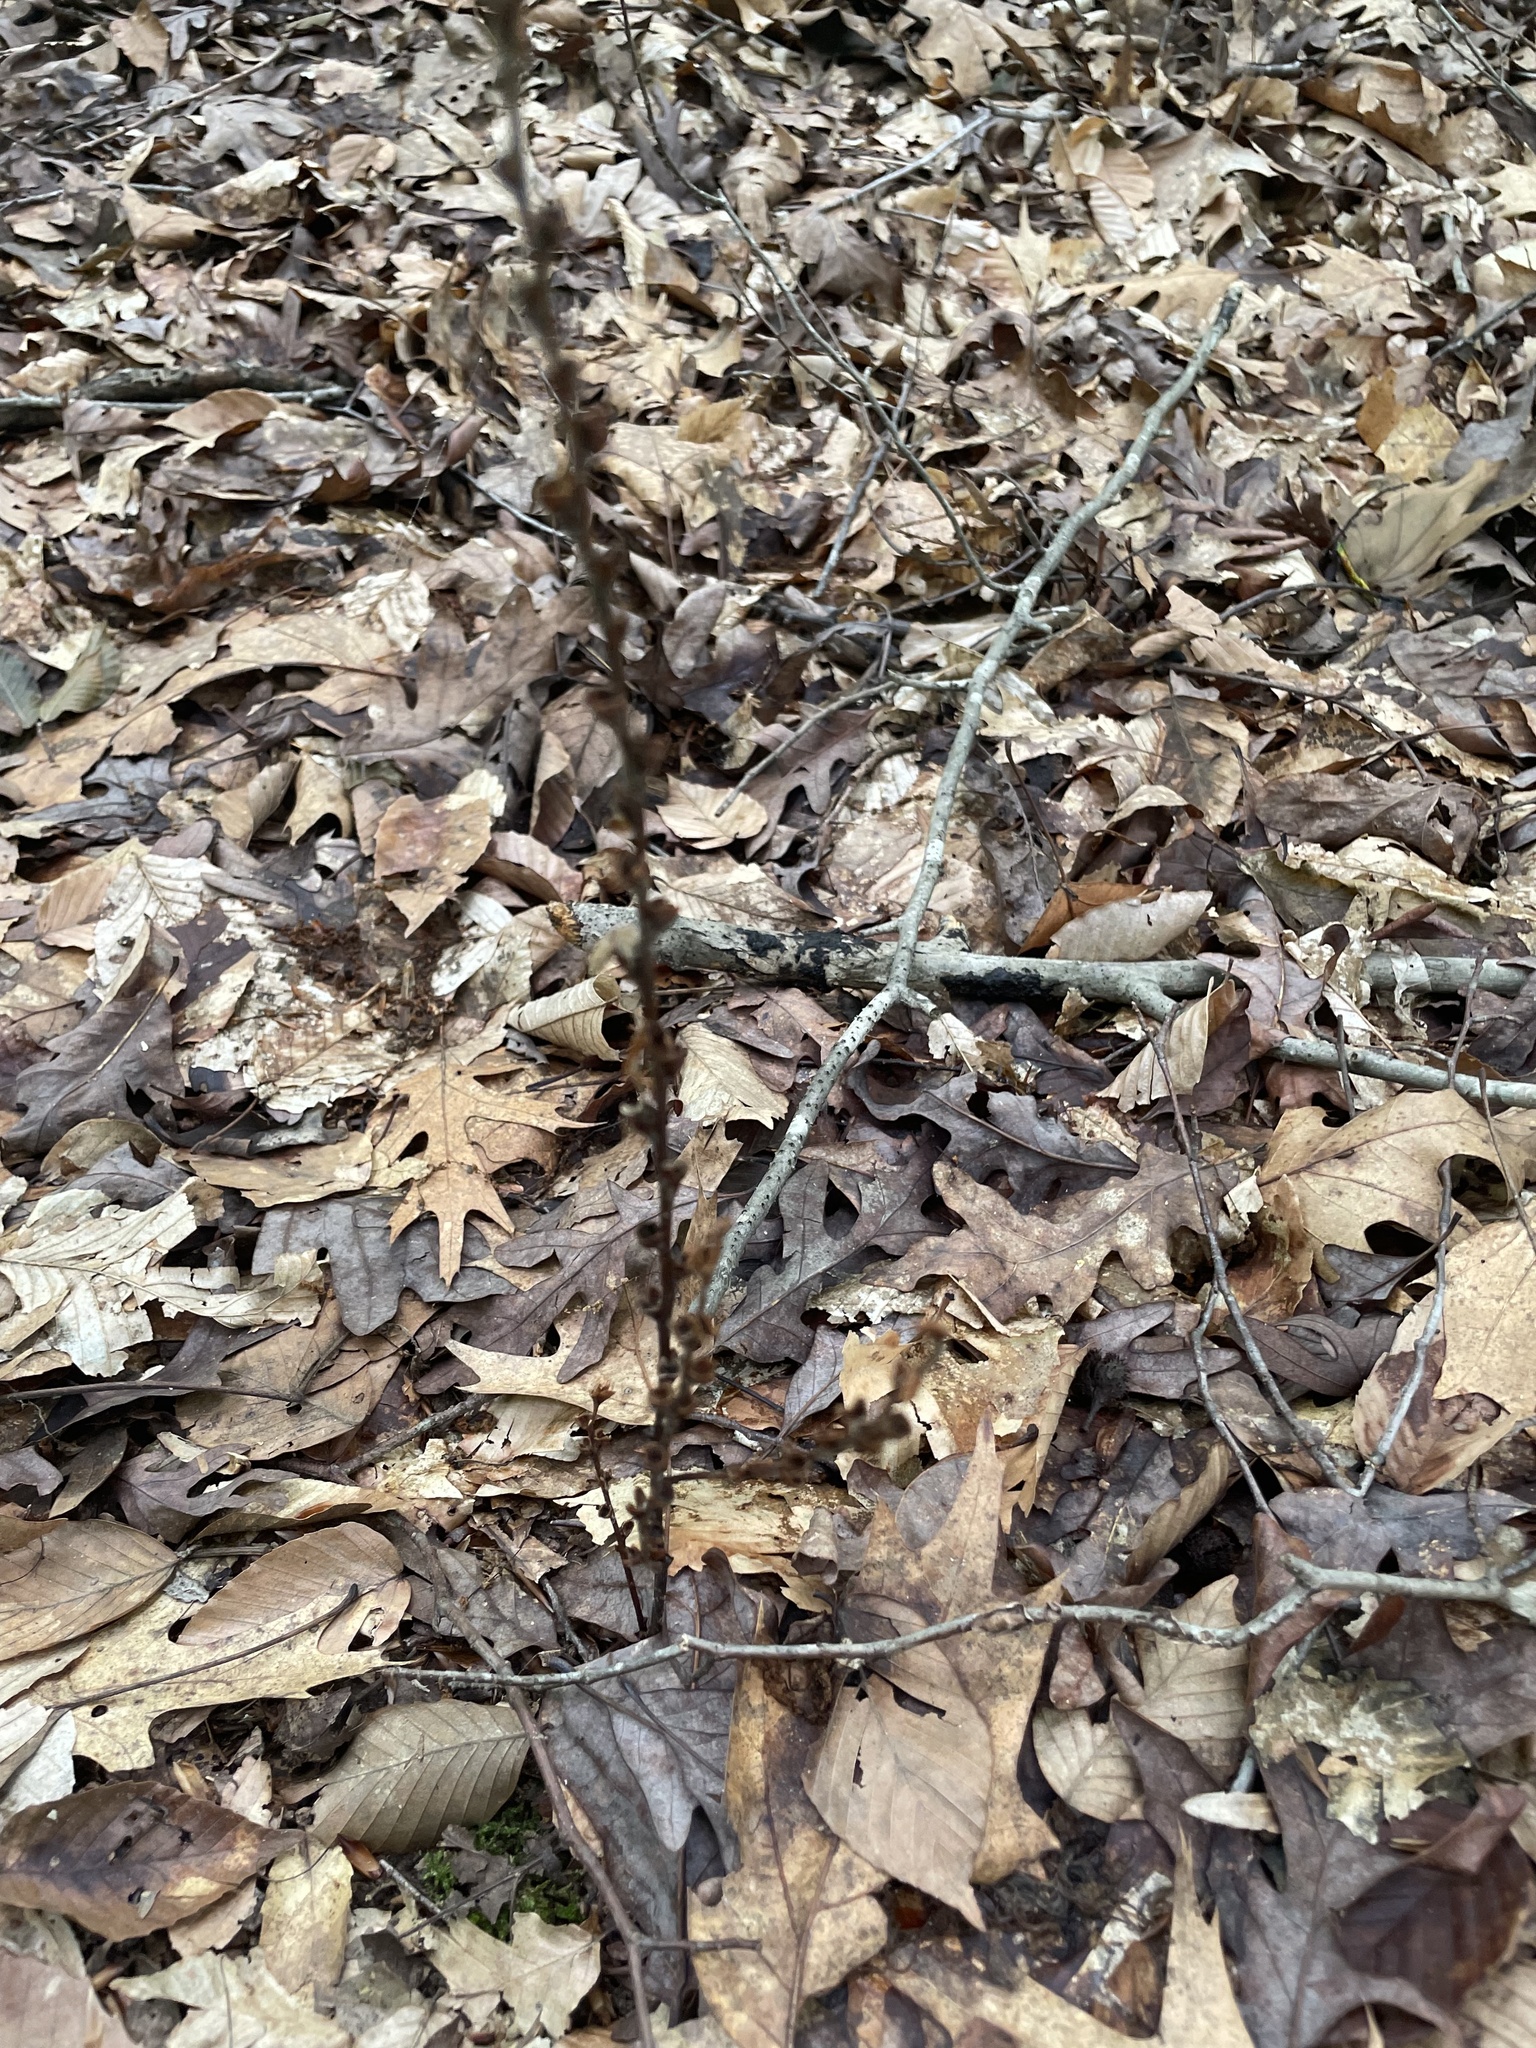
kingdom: Plantae
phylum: Tracheophyta
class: Magnoliopsida
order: Lamiales
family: Orobanchaceae
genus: Epifagus
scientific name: Epifagus virginiana
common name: Beechdrops
